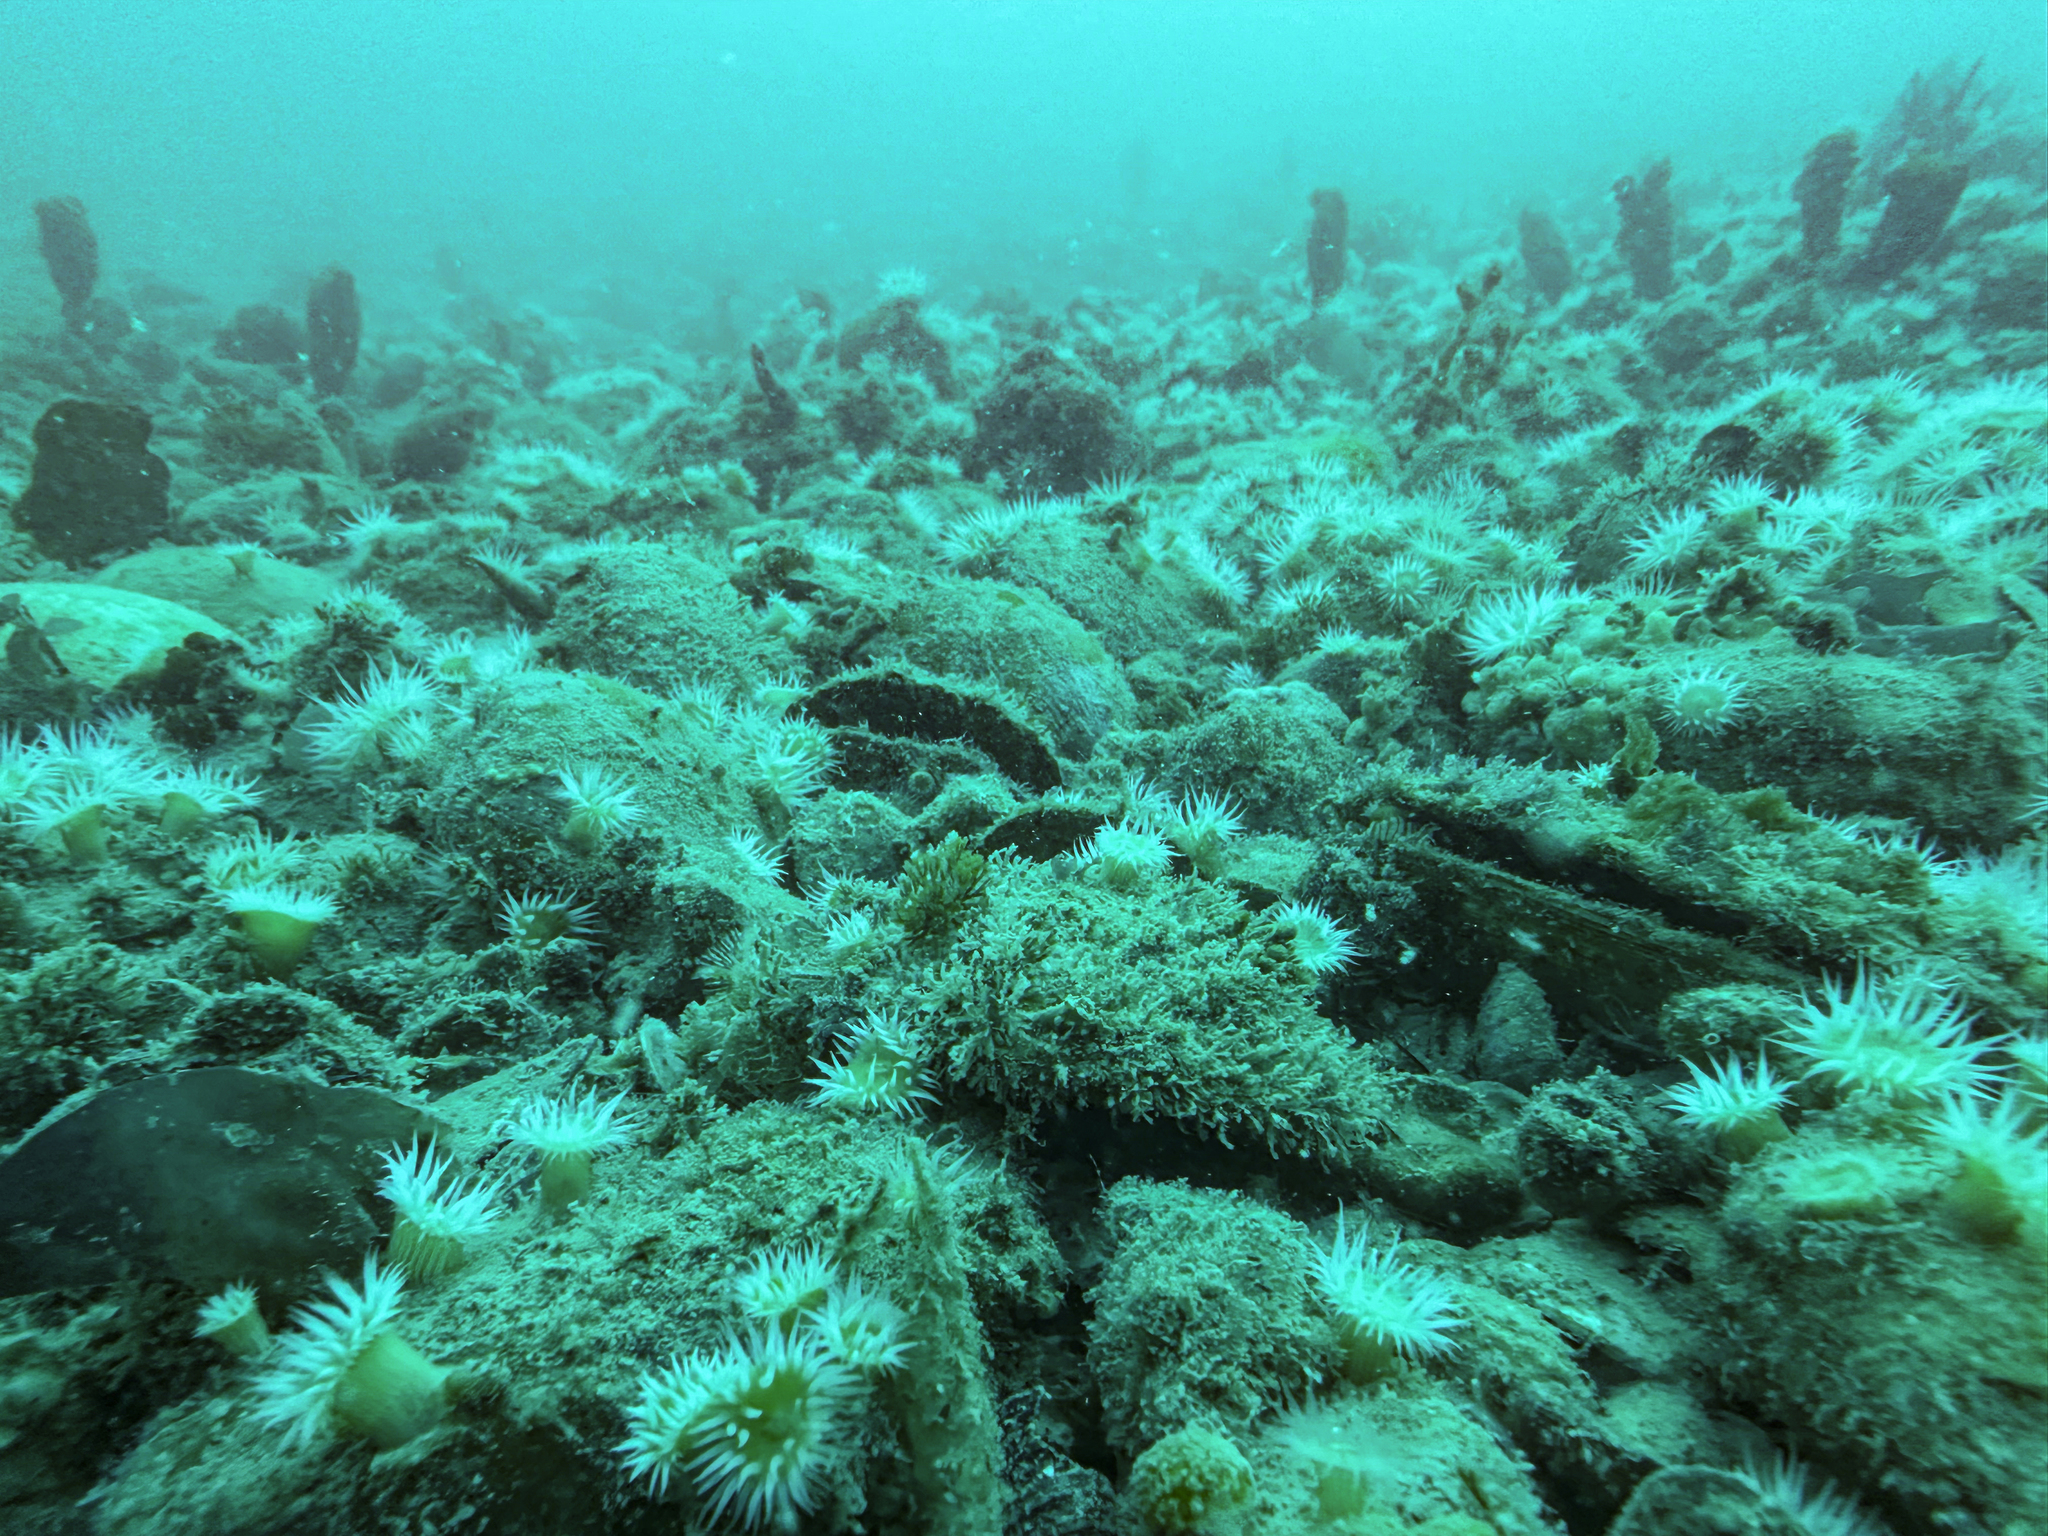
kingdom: Animalia
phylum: Mollusca
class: Bivalvia
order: Arcida
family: Glycymerididae
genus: Tucetona
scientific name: Tucetona laticostata
